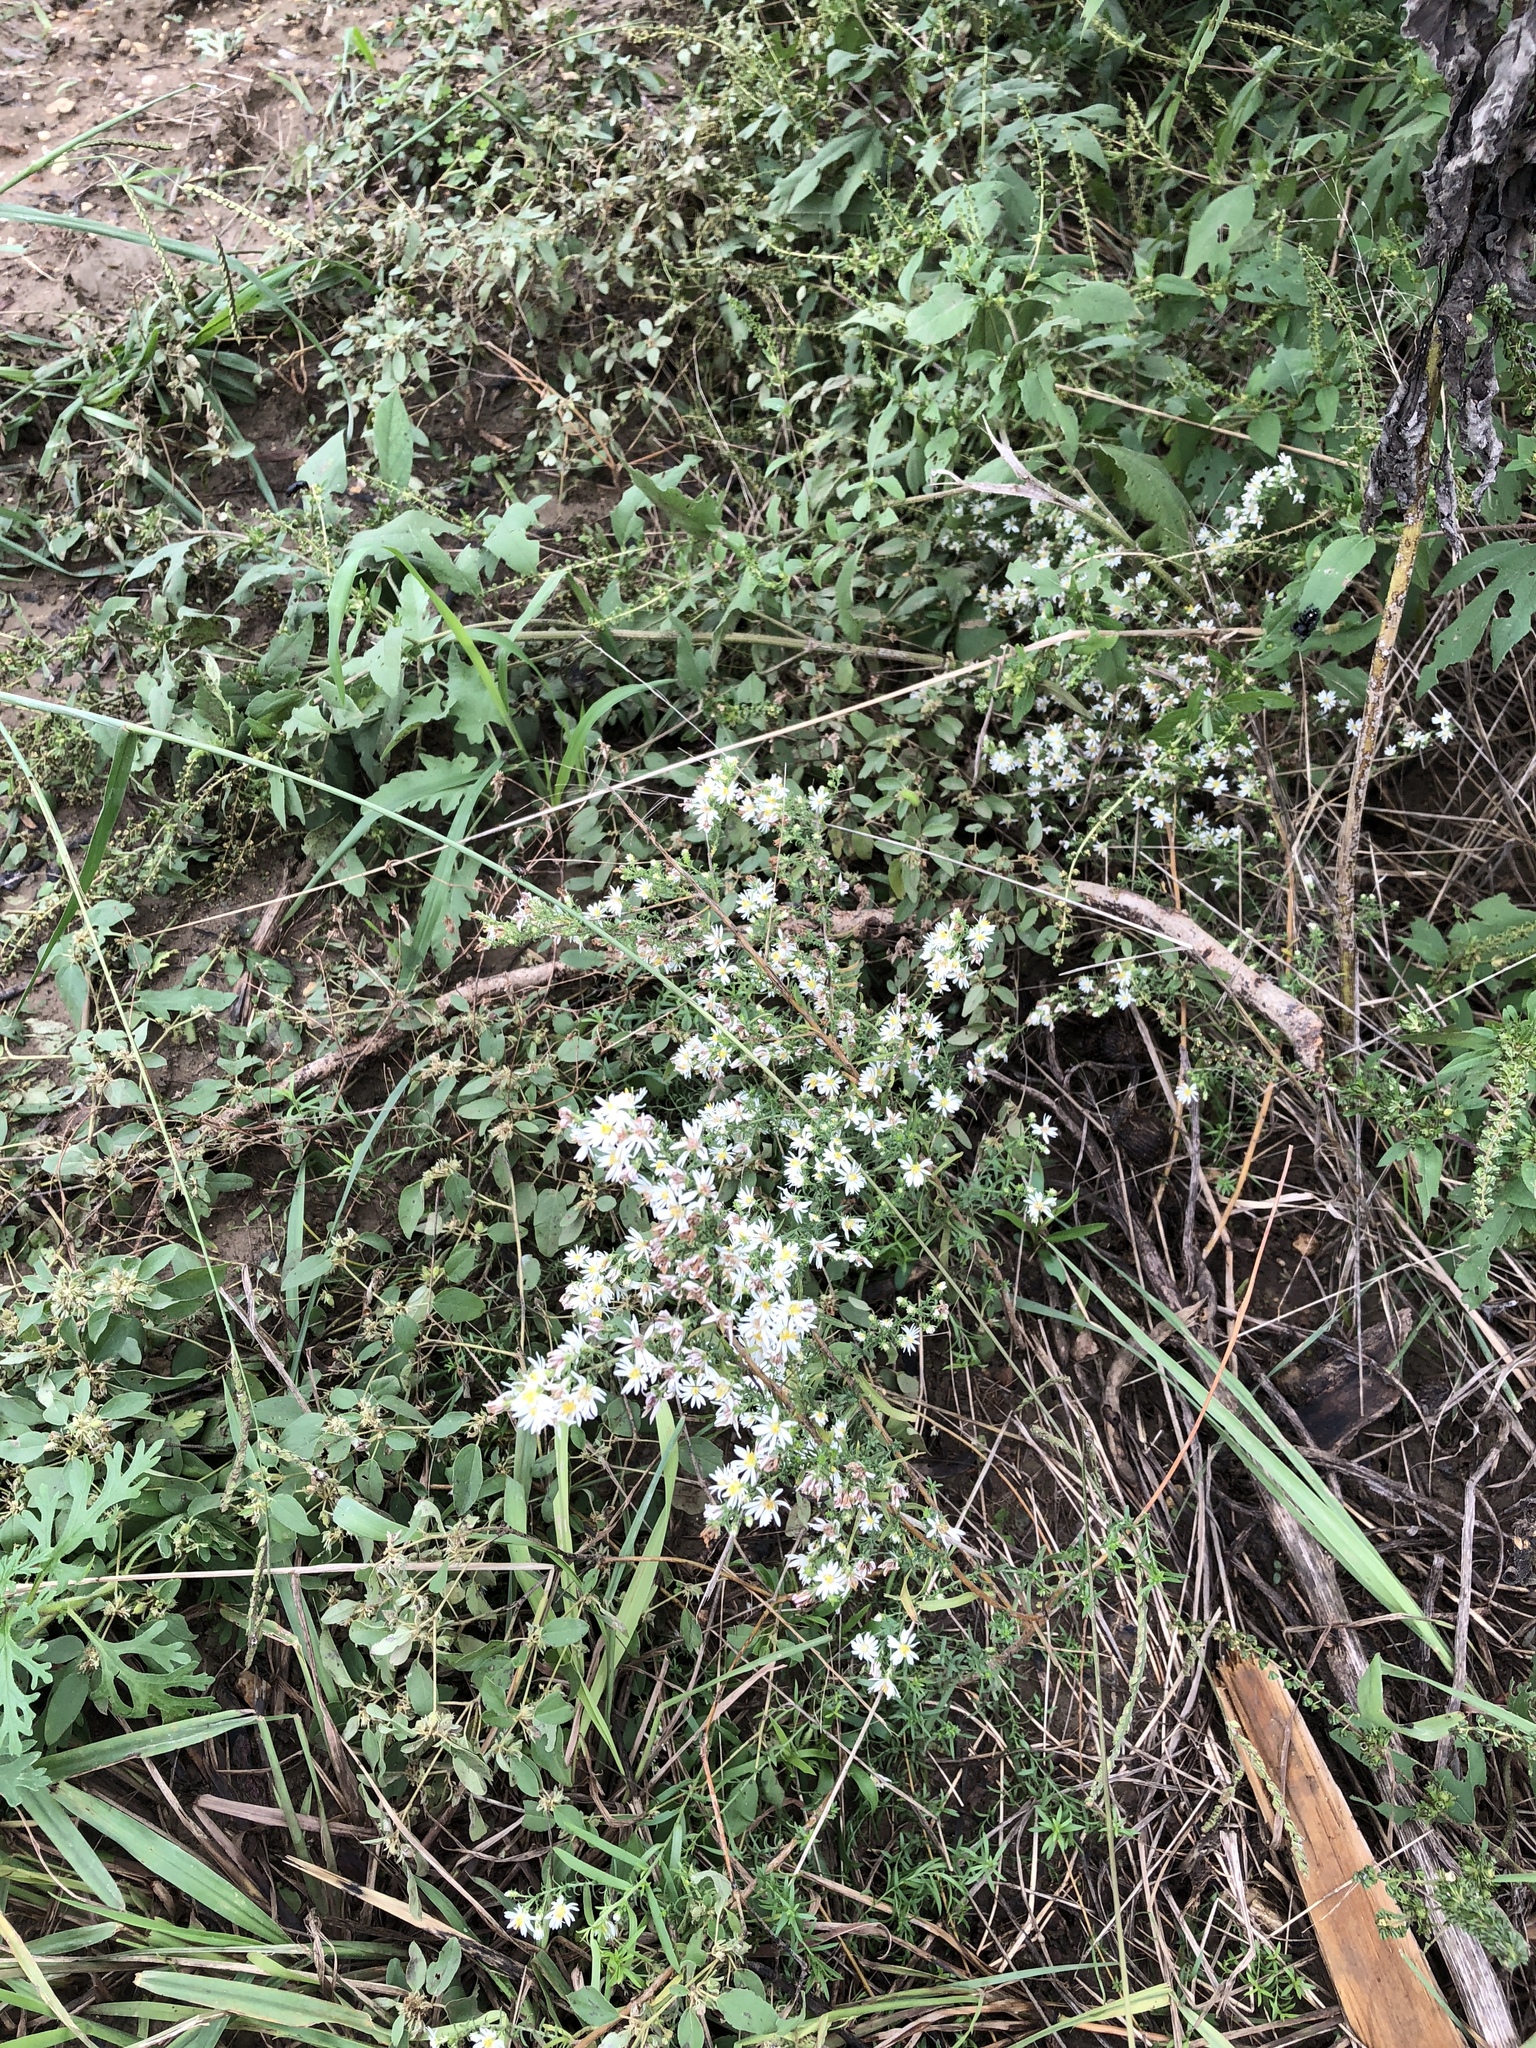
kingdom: Plantae
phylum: Tracheophyta
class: Magnoliopsida
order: Asterales
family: Asteraceae
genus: Symphyotrichum
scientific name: Symphyotrichum ericoides
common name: Heath aster
